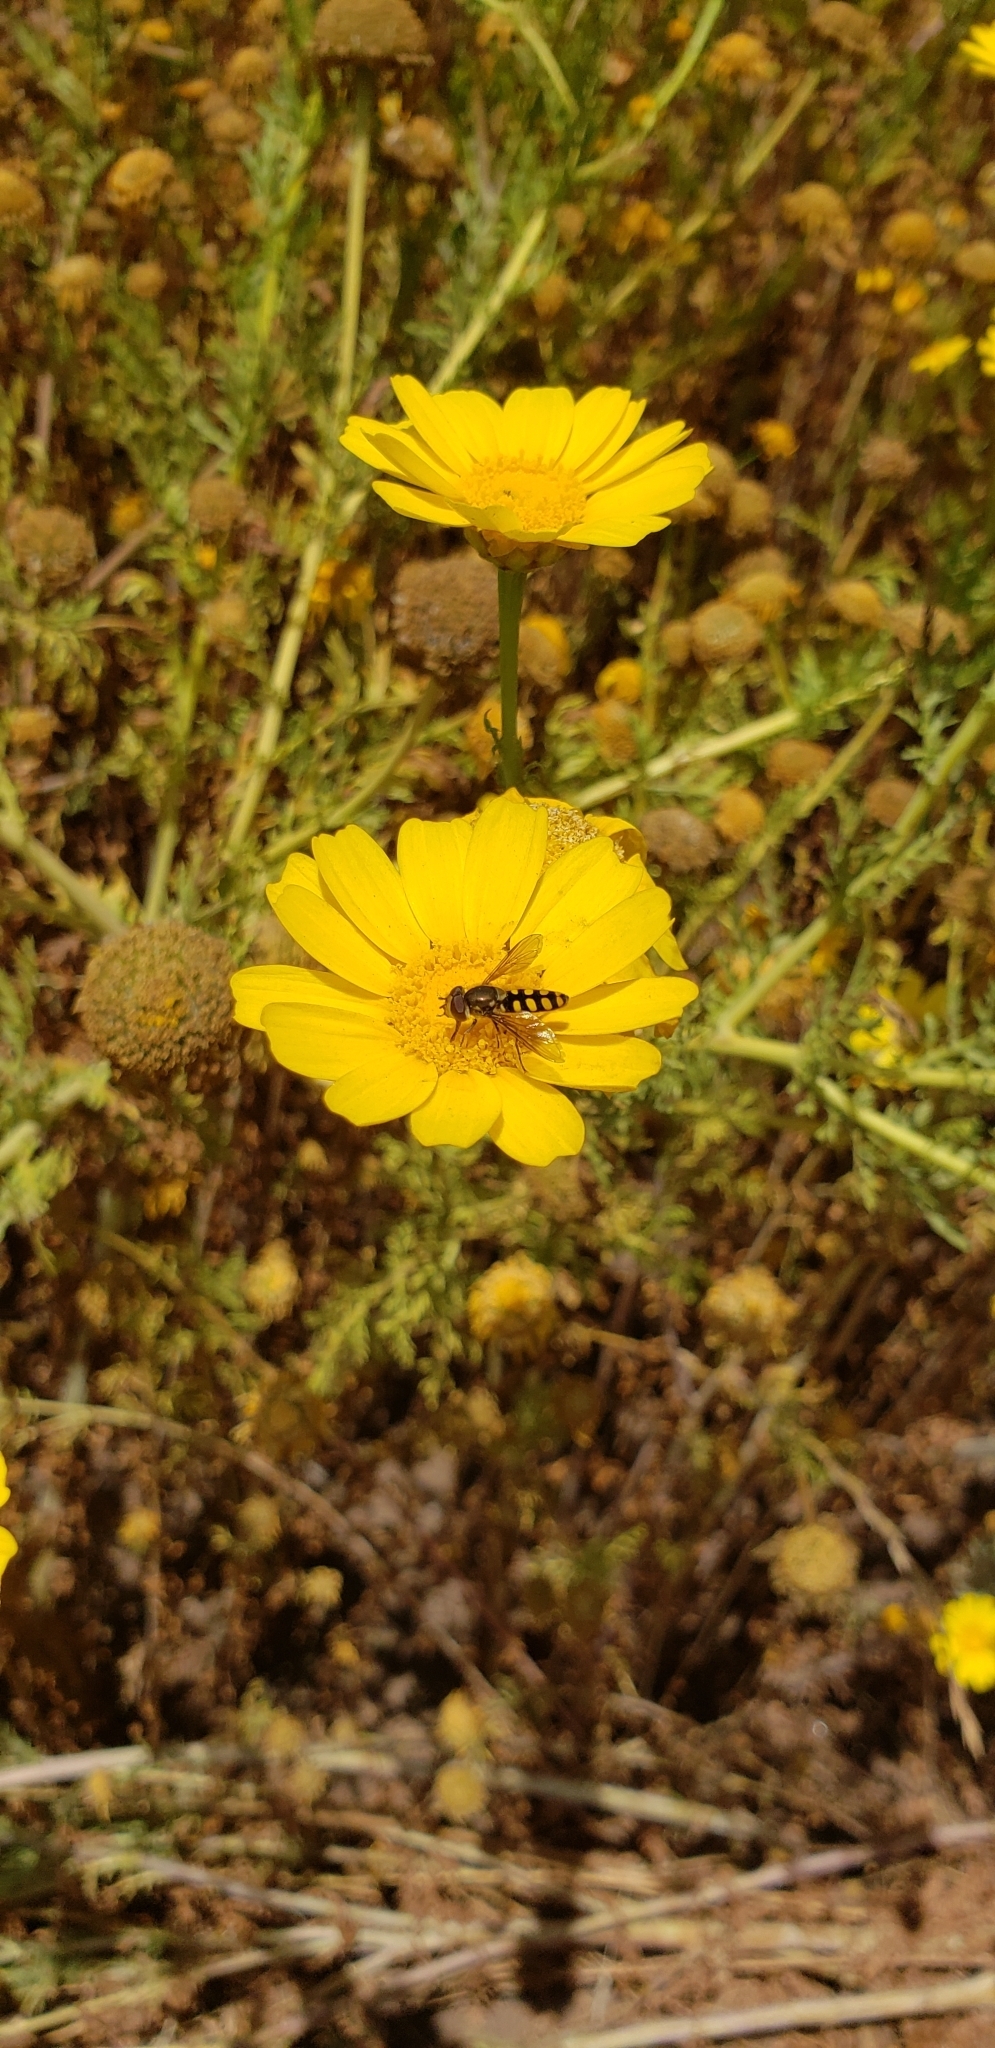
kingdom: Animalia
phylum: Arthropoda
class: Insecta
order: Diptera
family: Syrphidae
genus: Fazia
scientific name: Fazia decemmaculata
